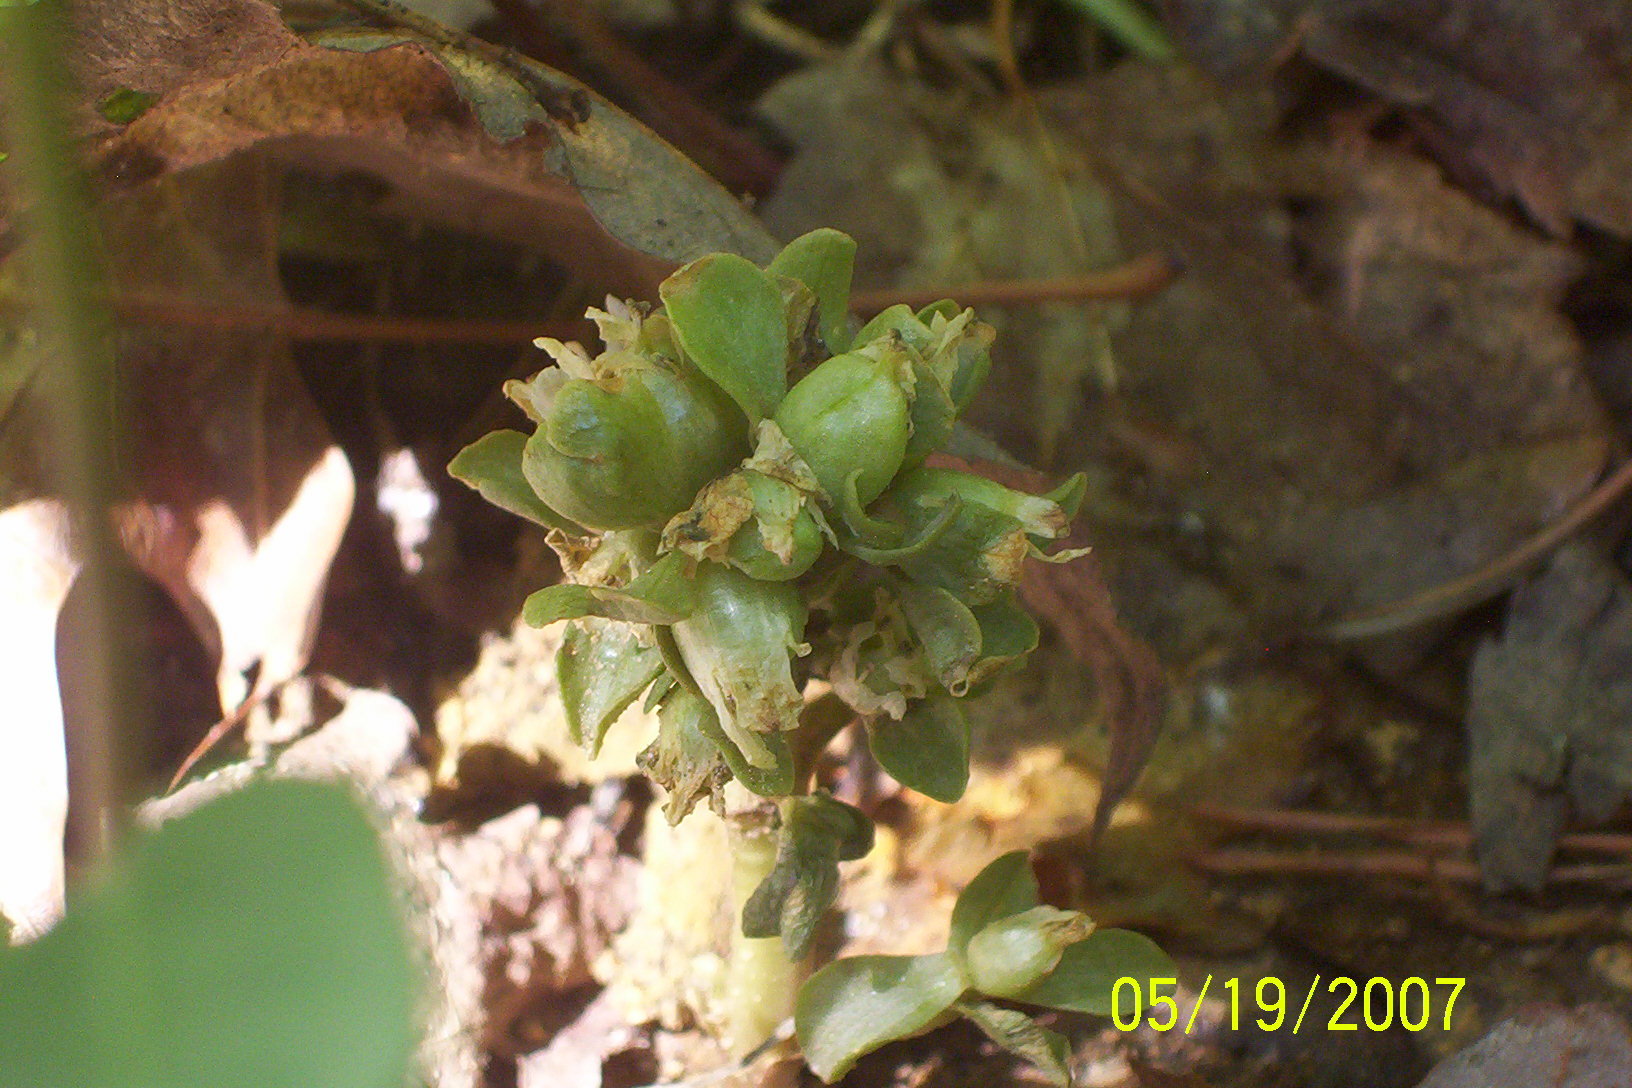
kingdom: Plantae
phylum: Tracheophyta
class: Magnoliopsida
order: Gentianales
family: Gentianaceae
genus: Obolaria
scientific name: Obolaria virginica
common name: Pennywort
